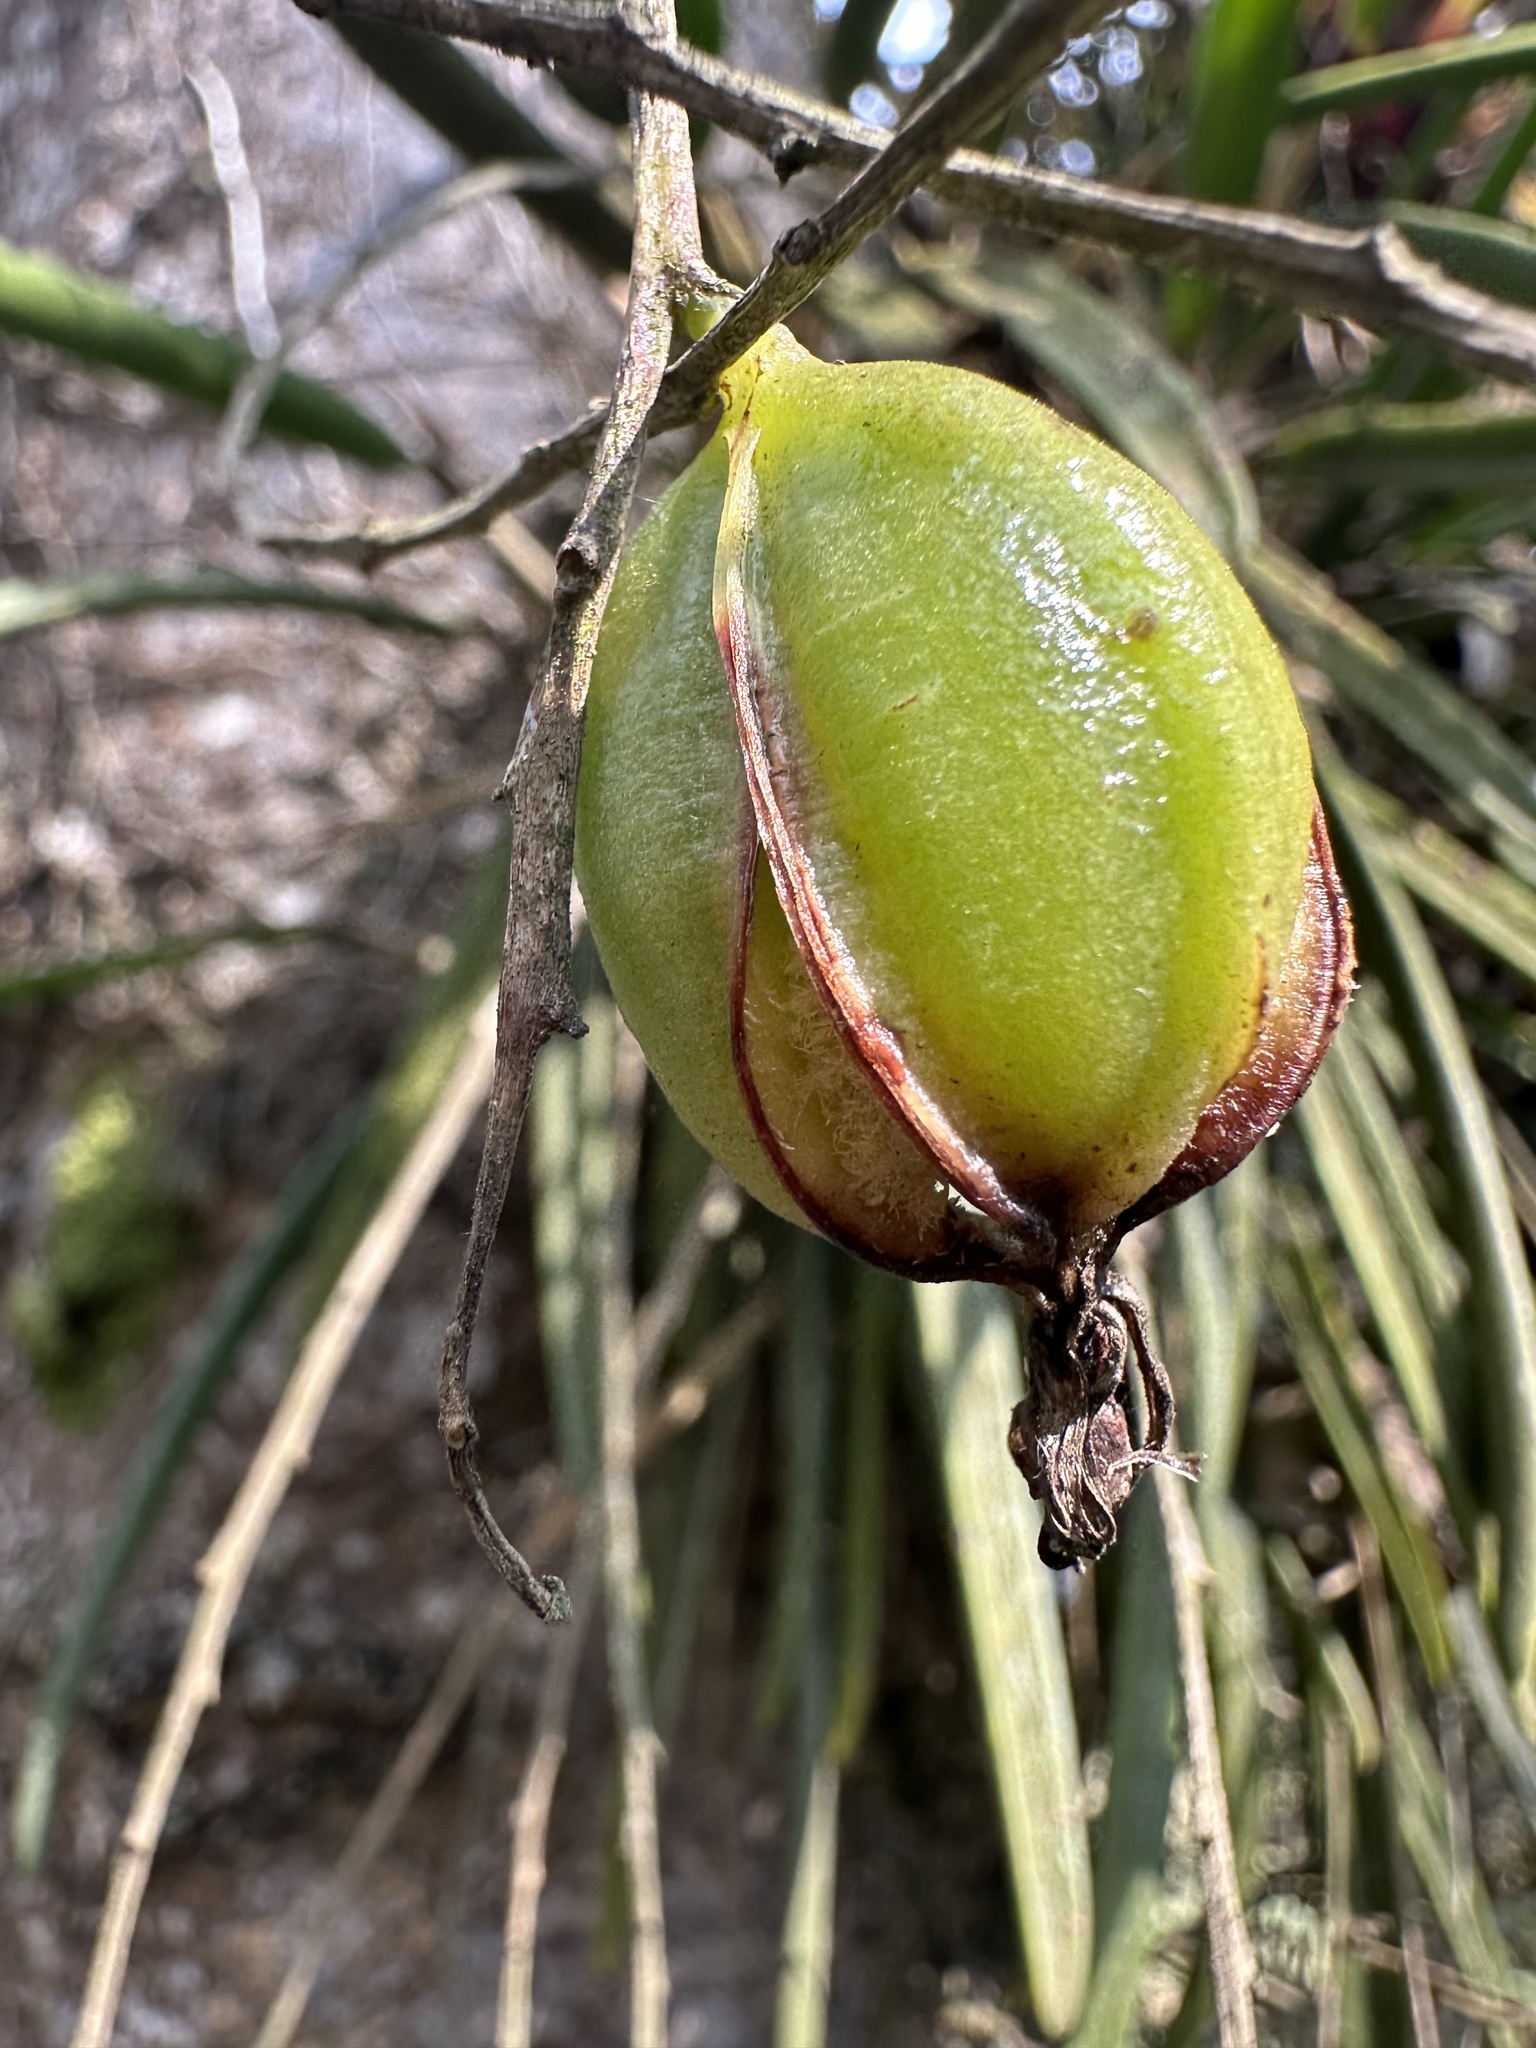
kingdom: Plantae
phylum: Tracheophyta
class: Liliopsida
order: Asparagales
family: Orchidaceae
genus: Epidendrum
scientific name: Epidendrum moritzii
